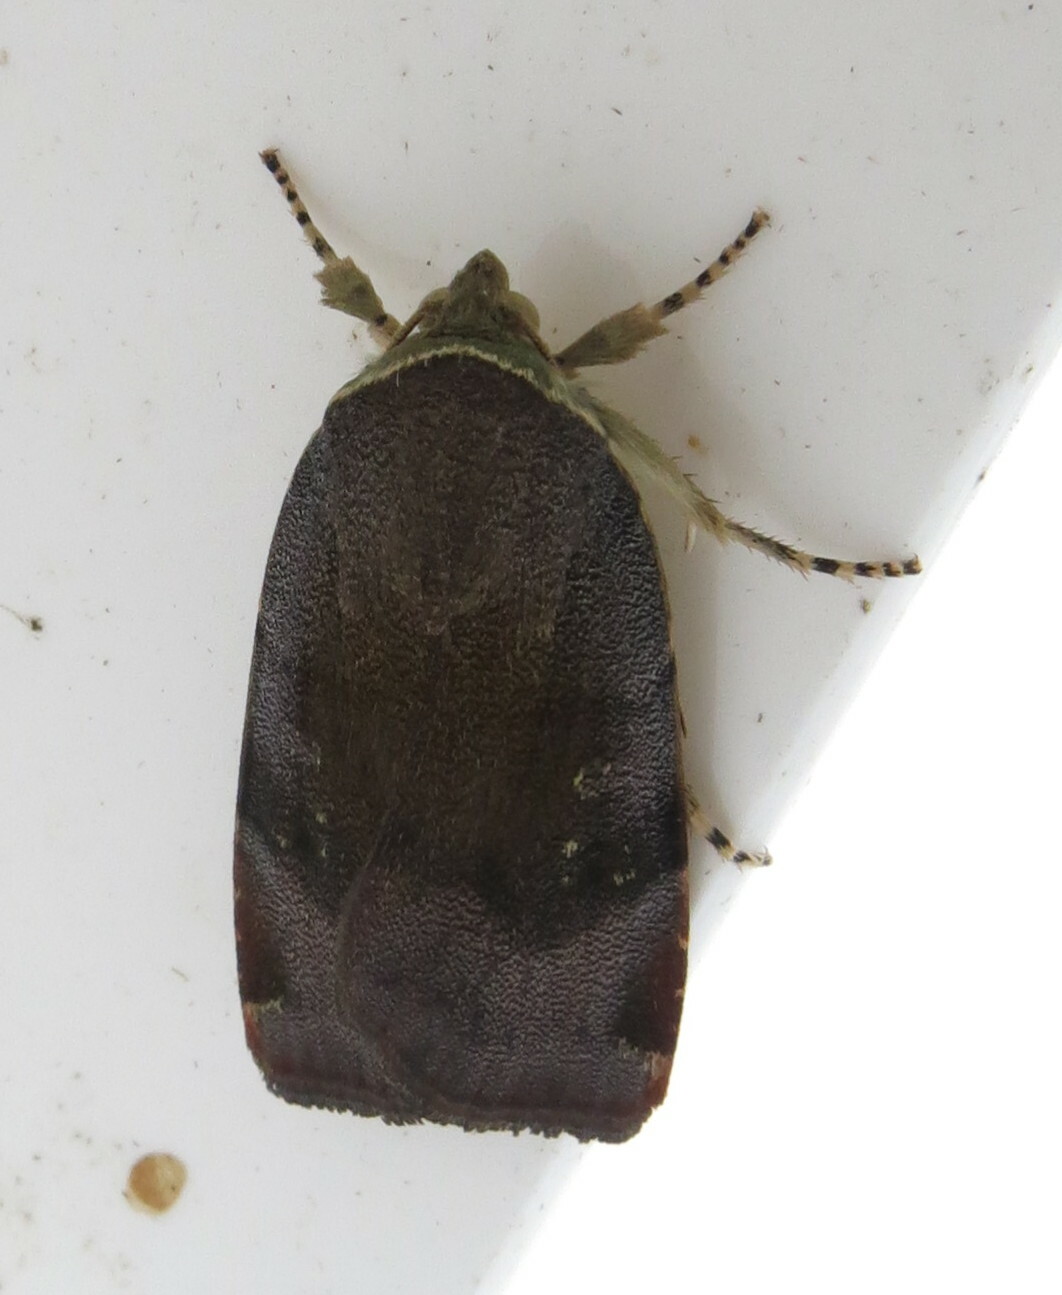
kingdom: Animalia
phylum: Arthropoda
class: Insecta
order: Lepidoptera
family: Noctuidae
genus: Noctua
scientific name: Noctua
